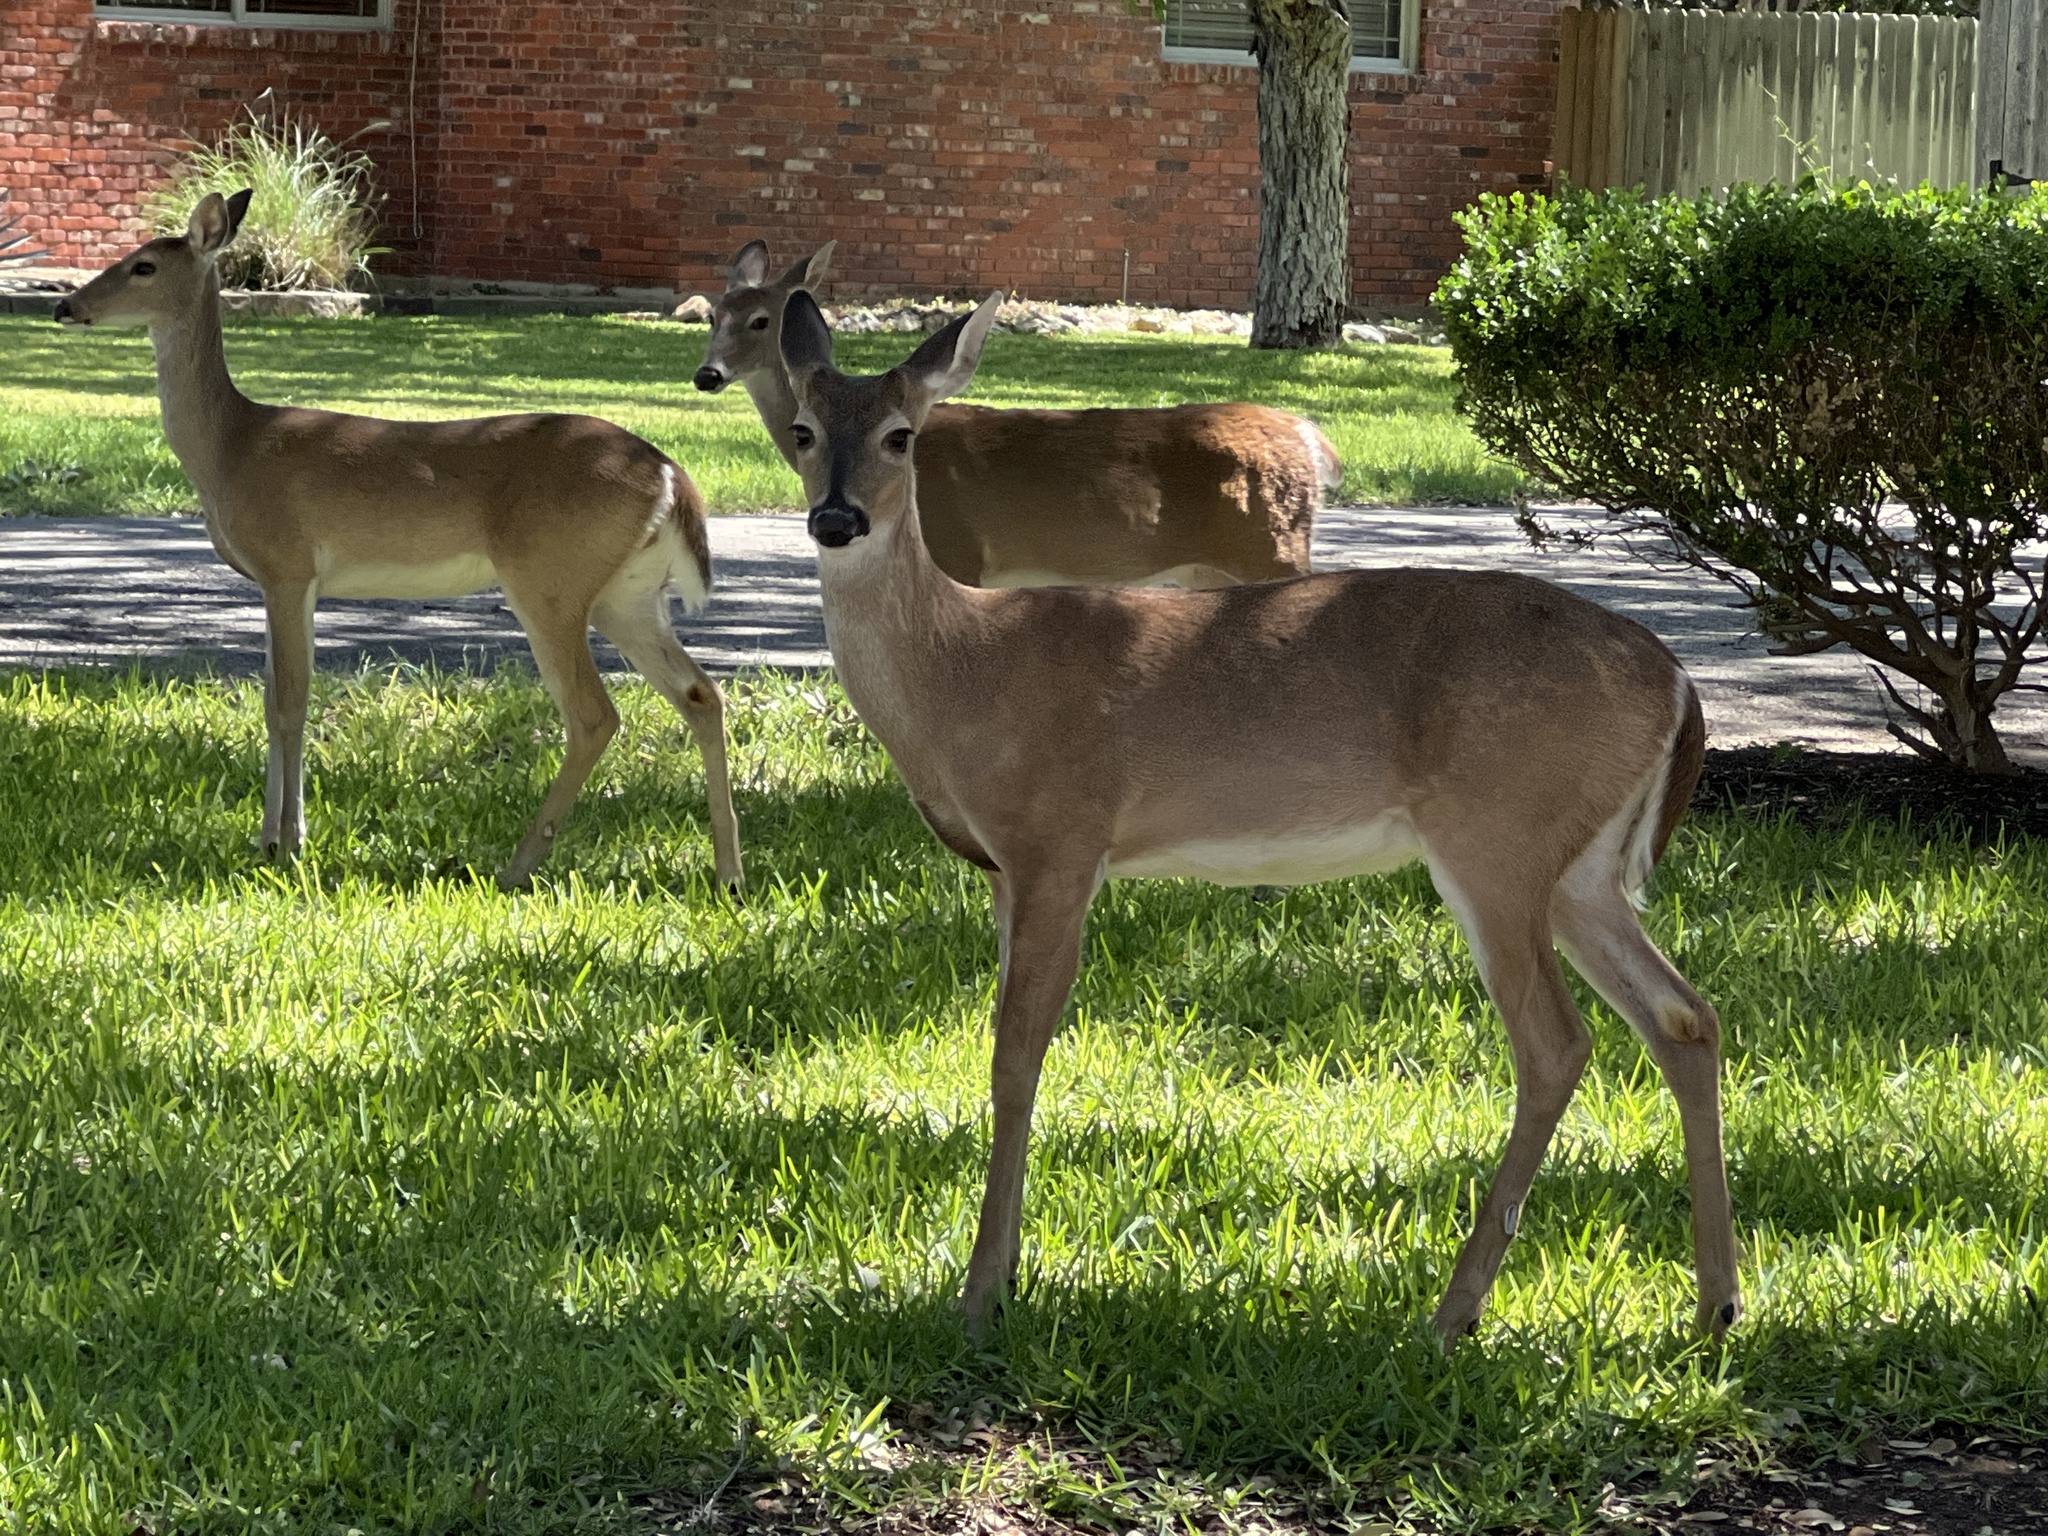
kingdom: Animalia
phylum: Chordata
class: Mammalia
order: Artiodactyla
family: Cervidae
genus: Odocoileus
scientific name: Odocoileus virginianus
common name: White-tailed deer
